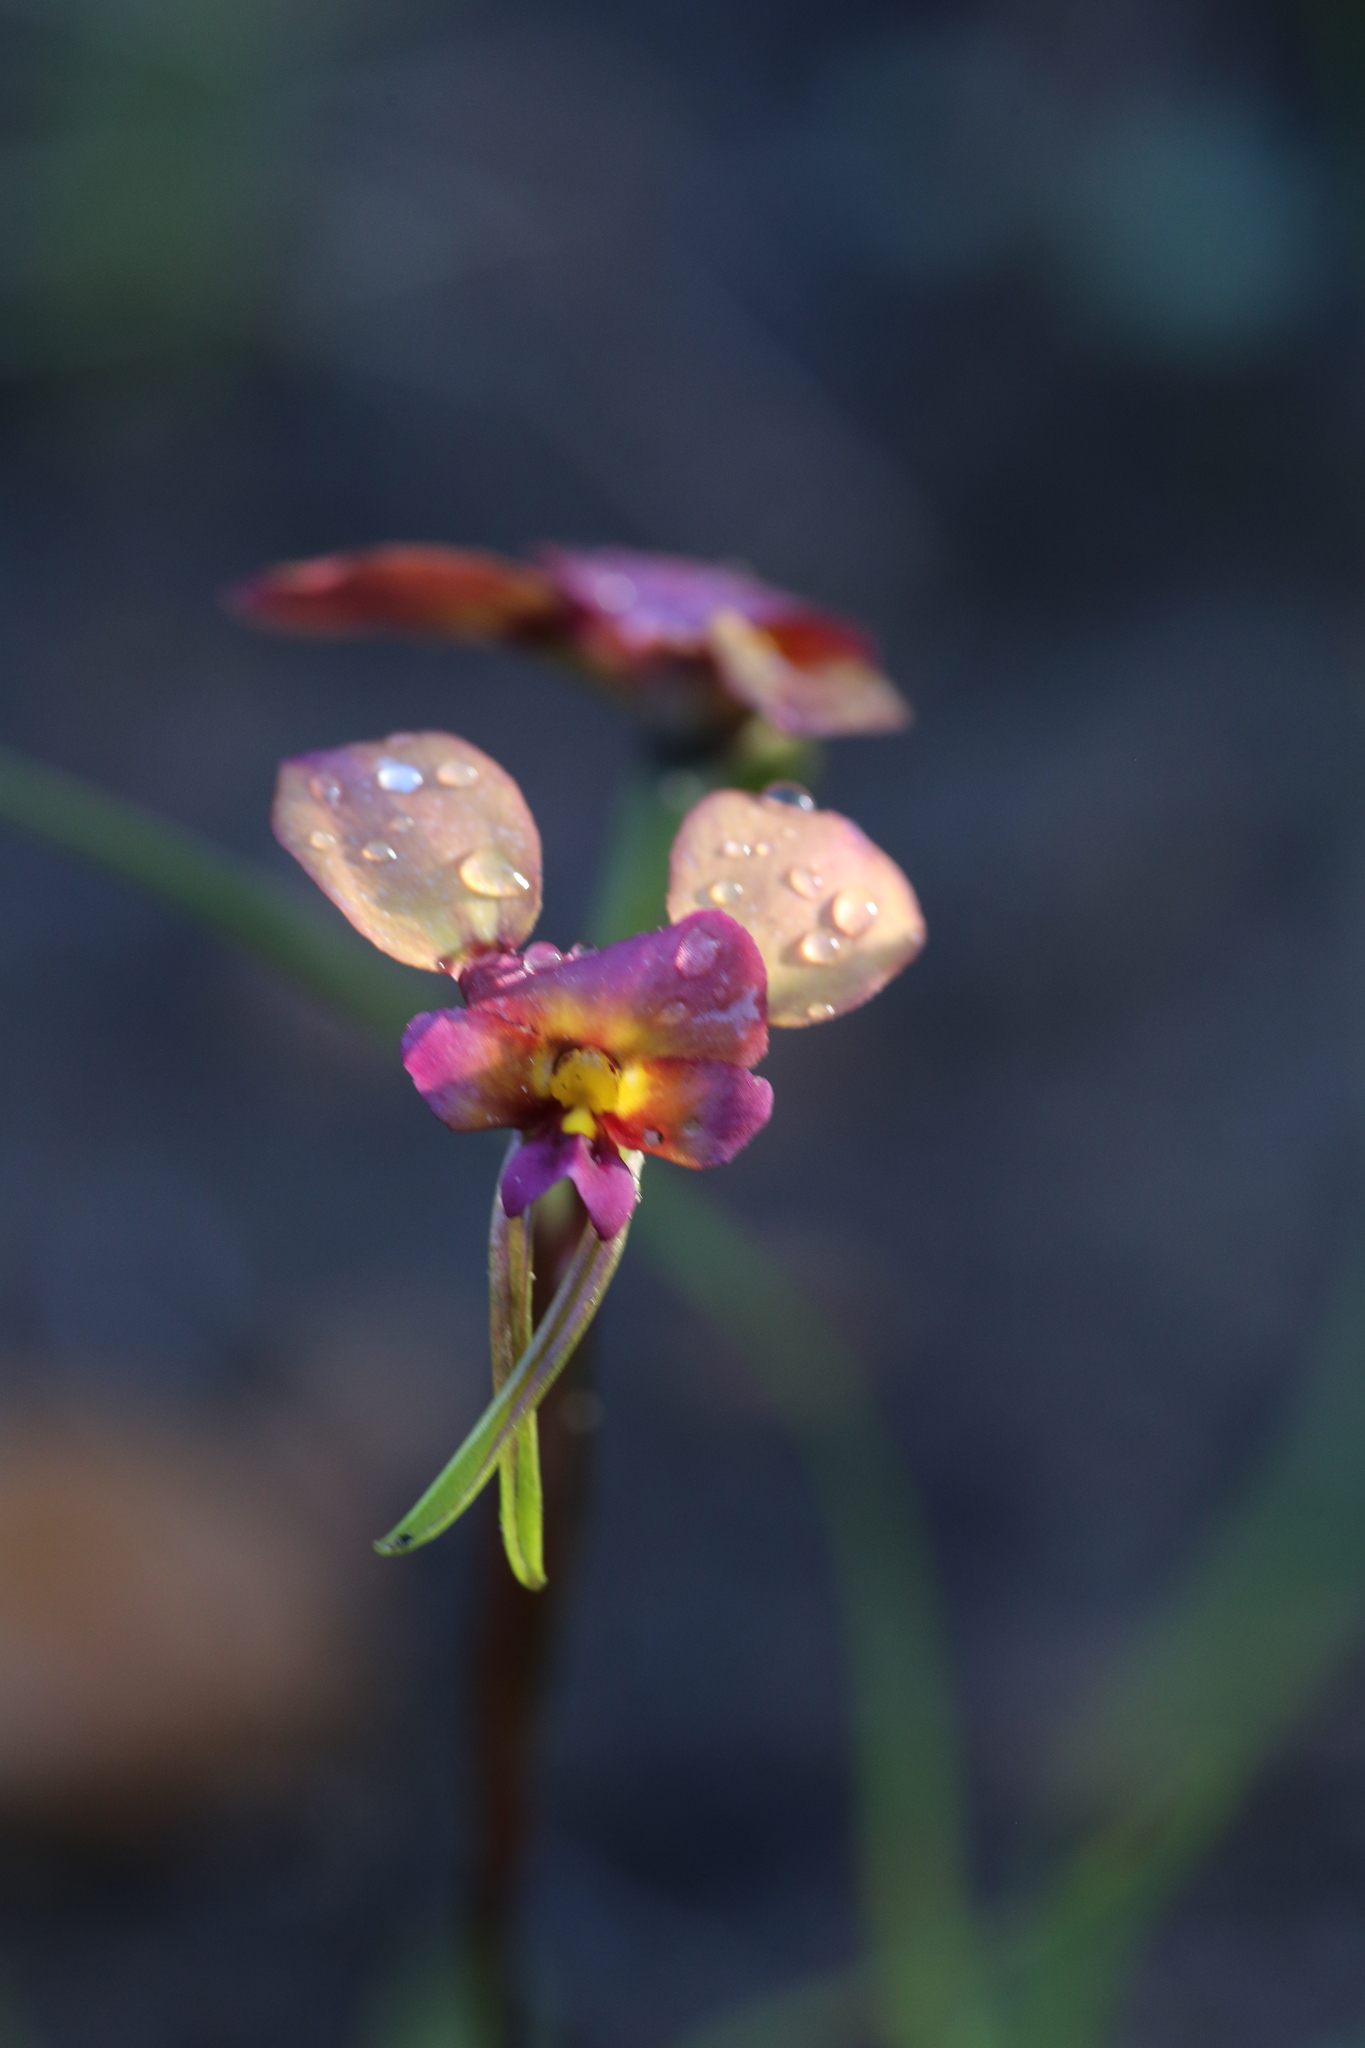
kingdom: Plantae
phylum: Tracheophyta
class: Liliopsida
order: Asparagales
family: Orchidaceae
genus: Diuris
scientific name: Diuris longifolia
